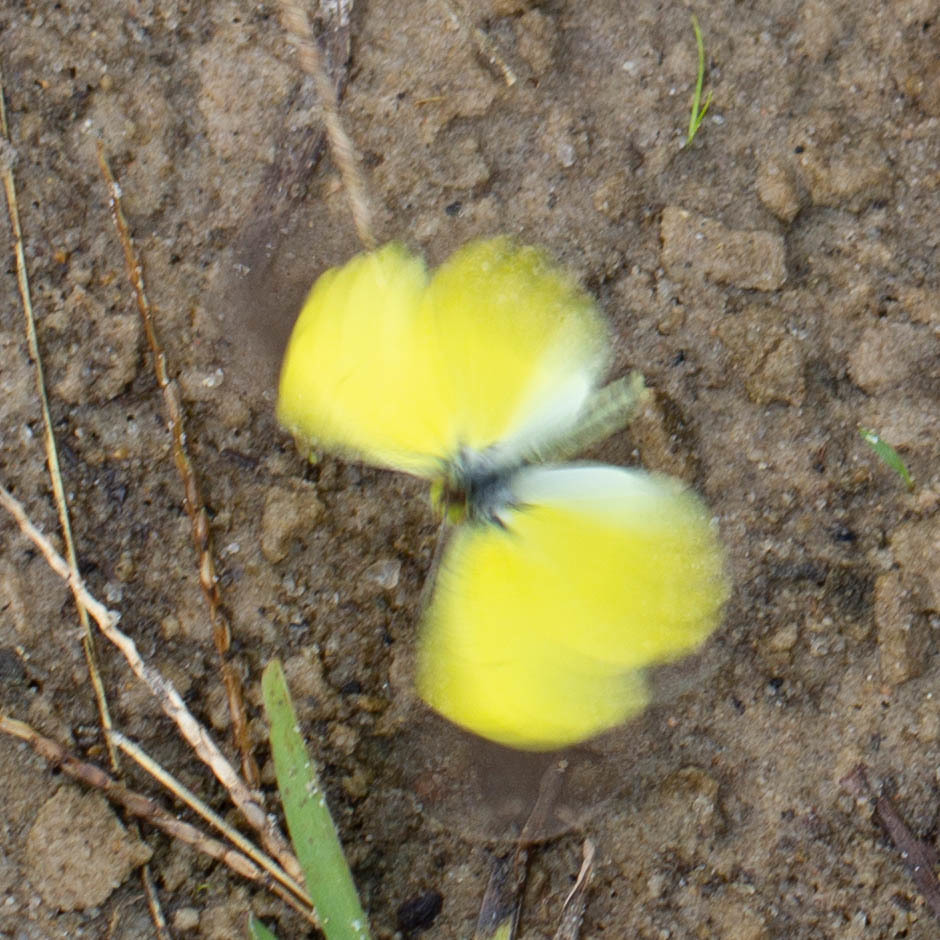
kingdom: Animalia
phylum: Arthropoda
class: Insecta
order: Lepidoptera
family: Pieridae
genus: Pyrisitia
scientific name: Pyrisitia lisa
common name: Little yellow
